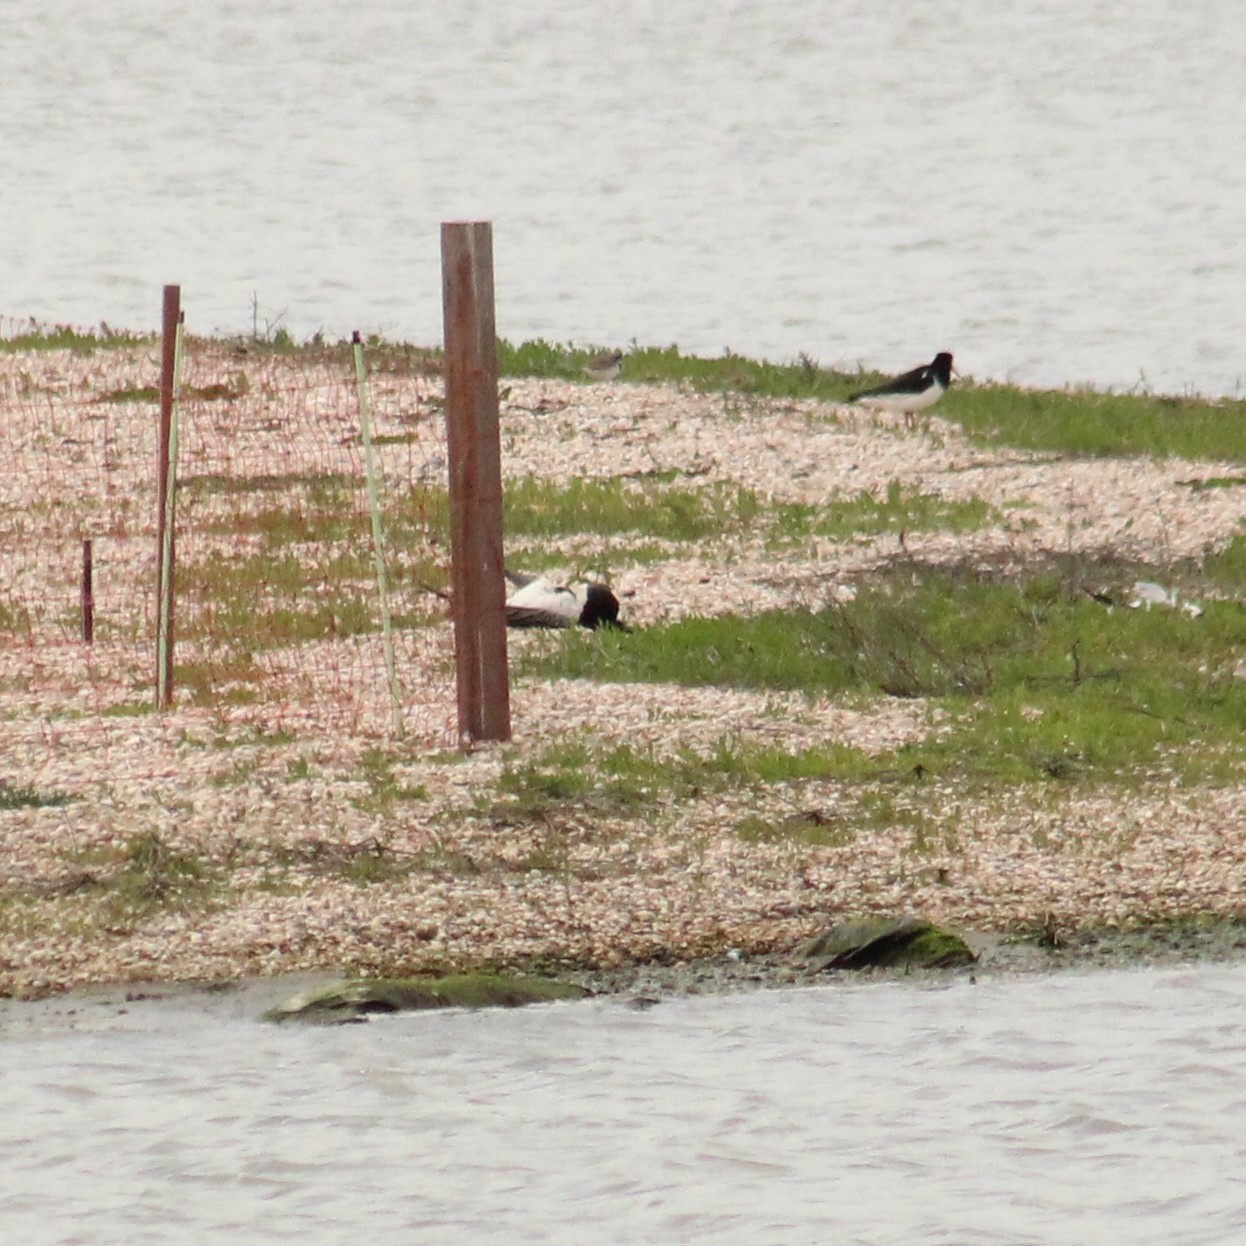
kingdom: Animalia
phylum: Chordata
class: Aves
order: Anseriformes
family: Anatidae
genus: Branta
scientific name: Branta leucopsis
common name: Barnacle goose
